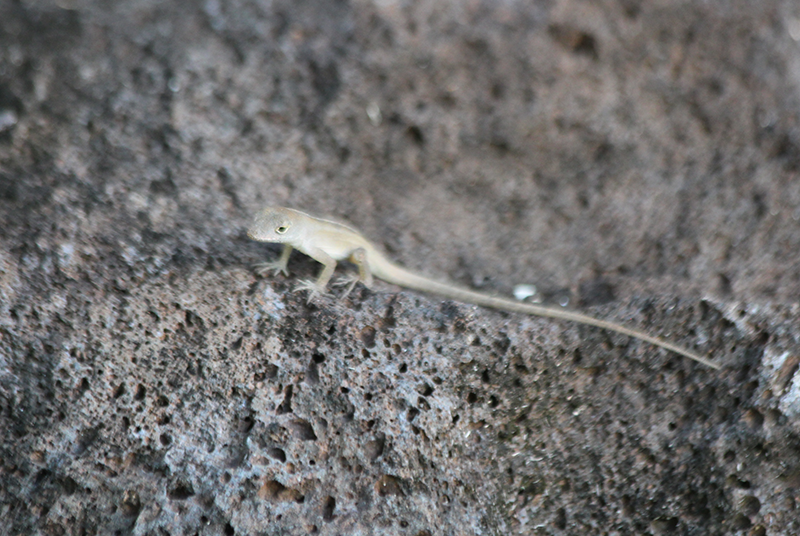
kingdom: Animalia
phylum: Chordata
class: Squamata
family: Dactyloidae
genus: Anolis
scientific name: Anolis sagrei
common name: Brown anole
